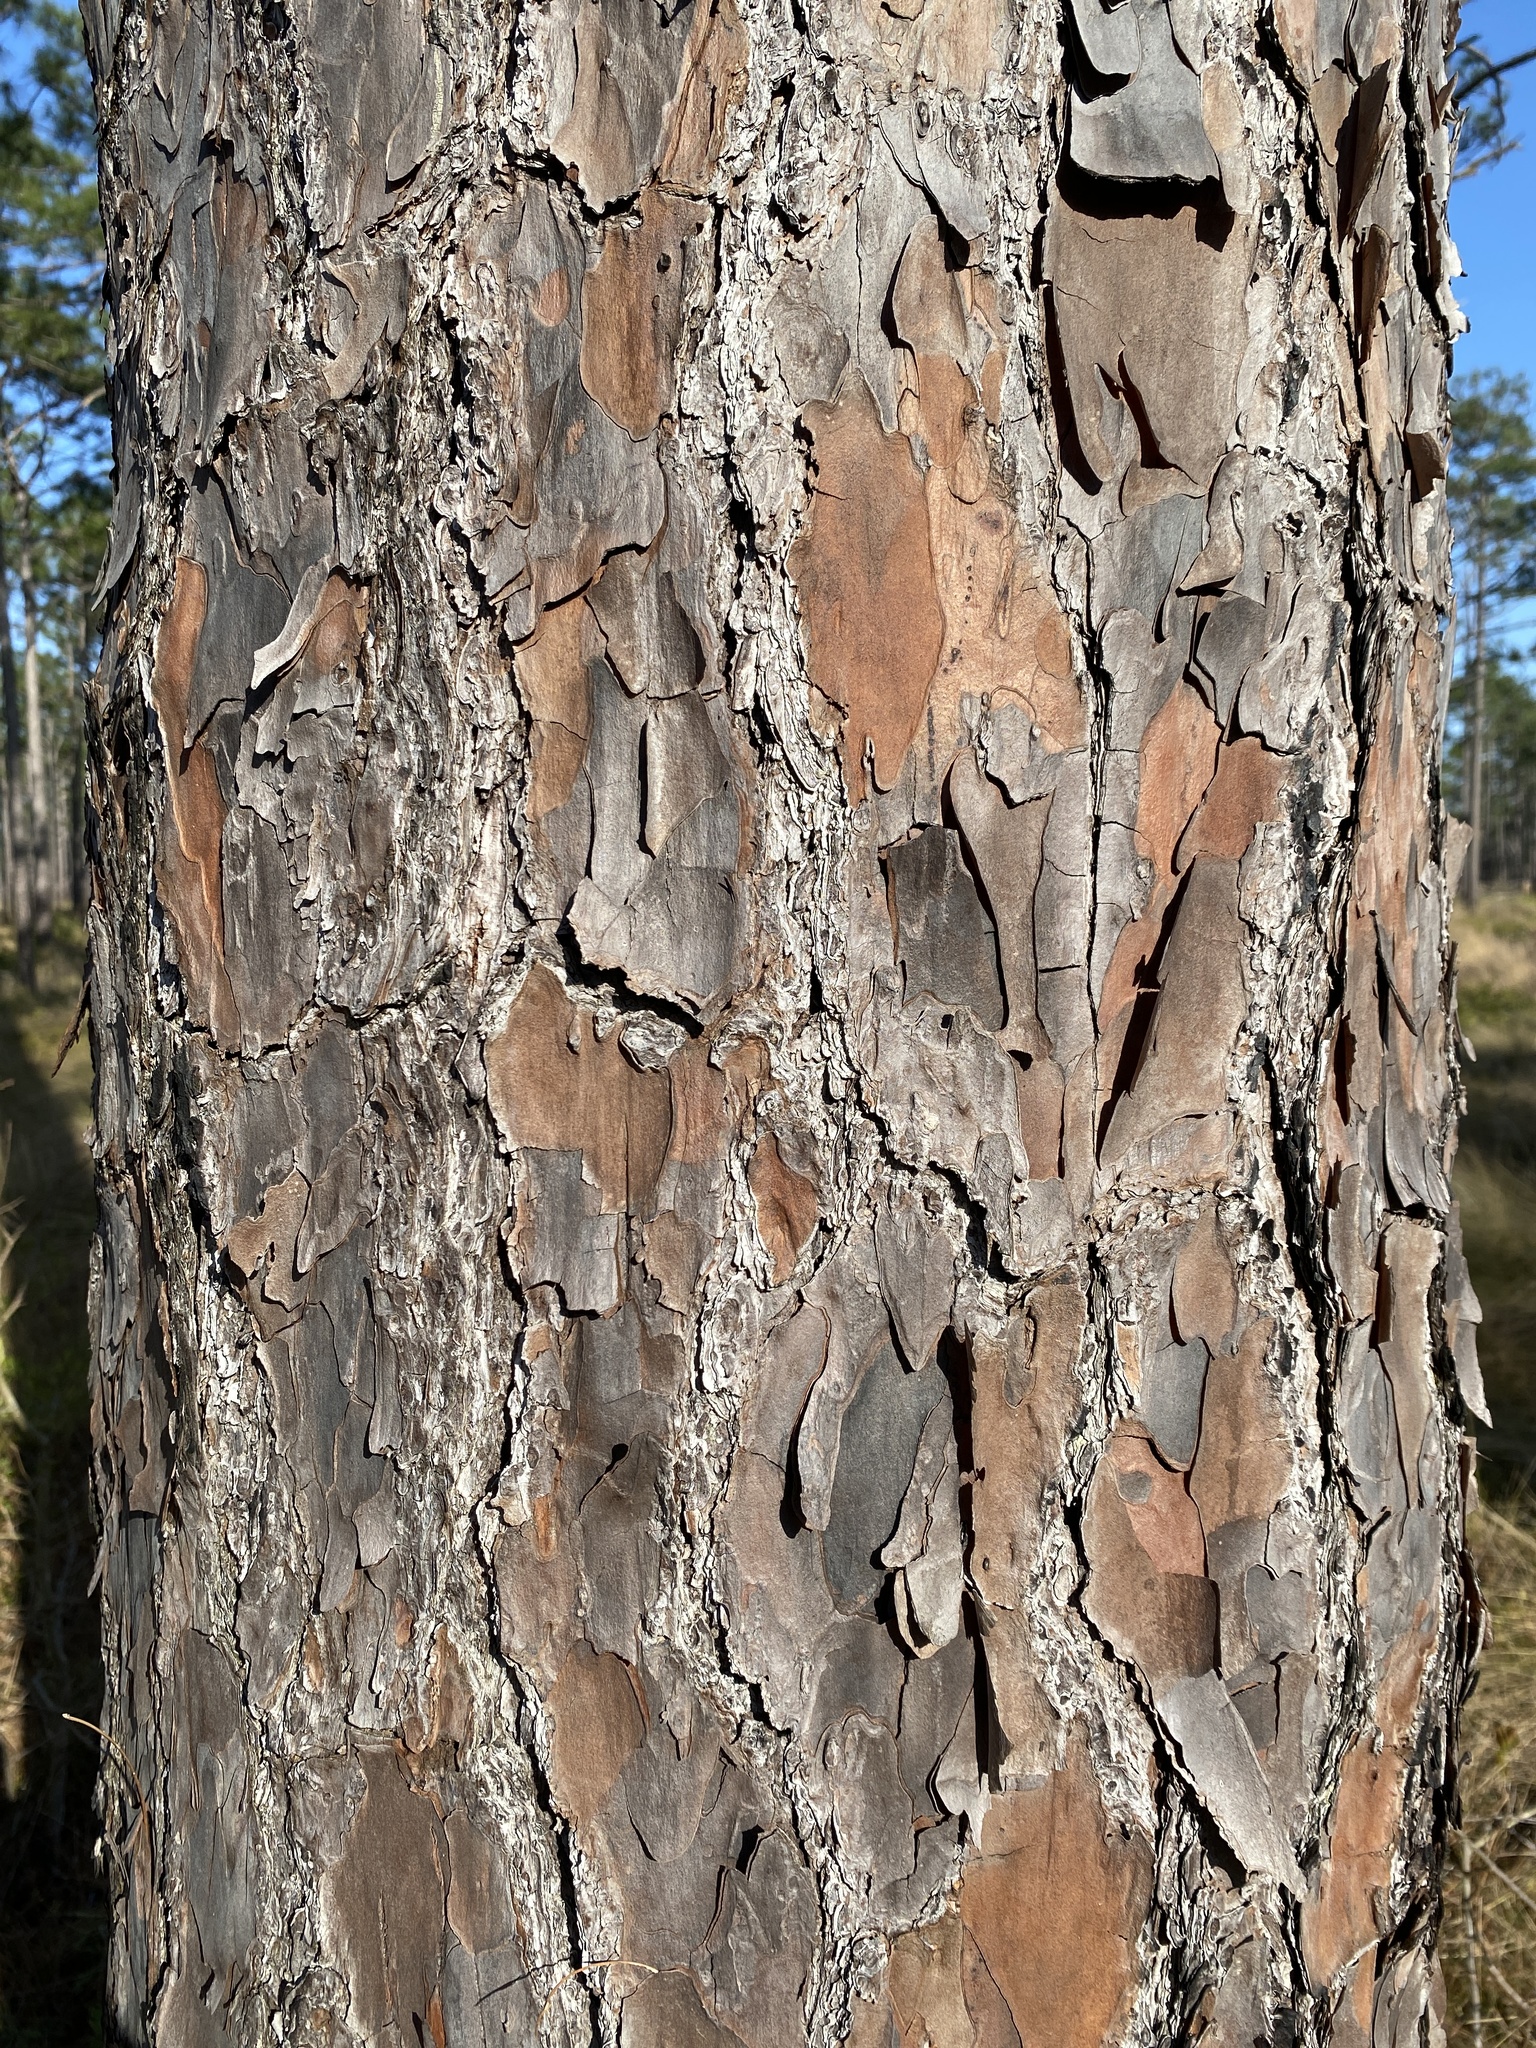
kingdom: Plantae
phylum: Tracheophyta
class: Pinopsida
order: Pinales
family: Pinaceae
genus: Pinus
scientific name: Pinus palustris
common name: Longleaf pine
